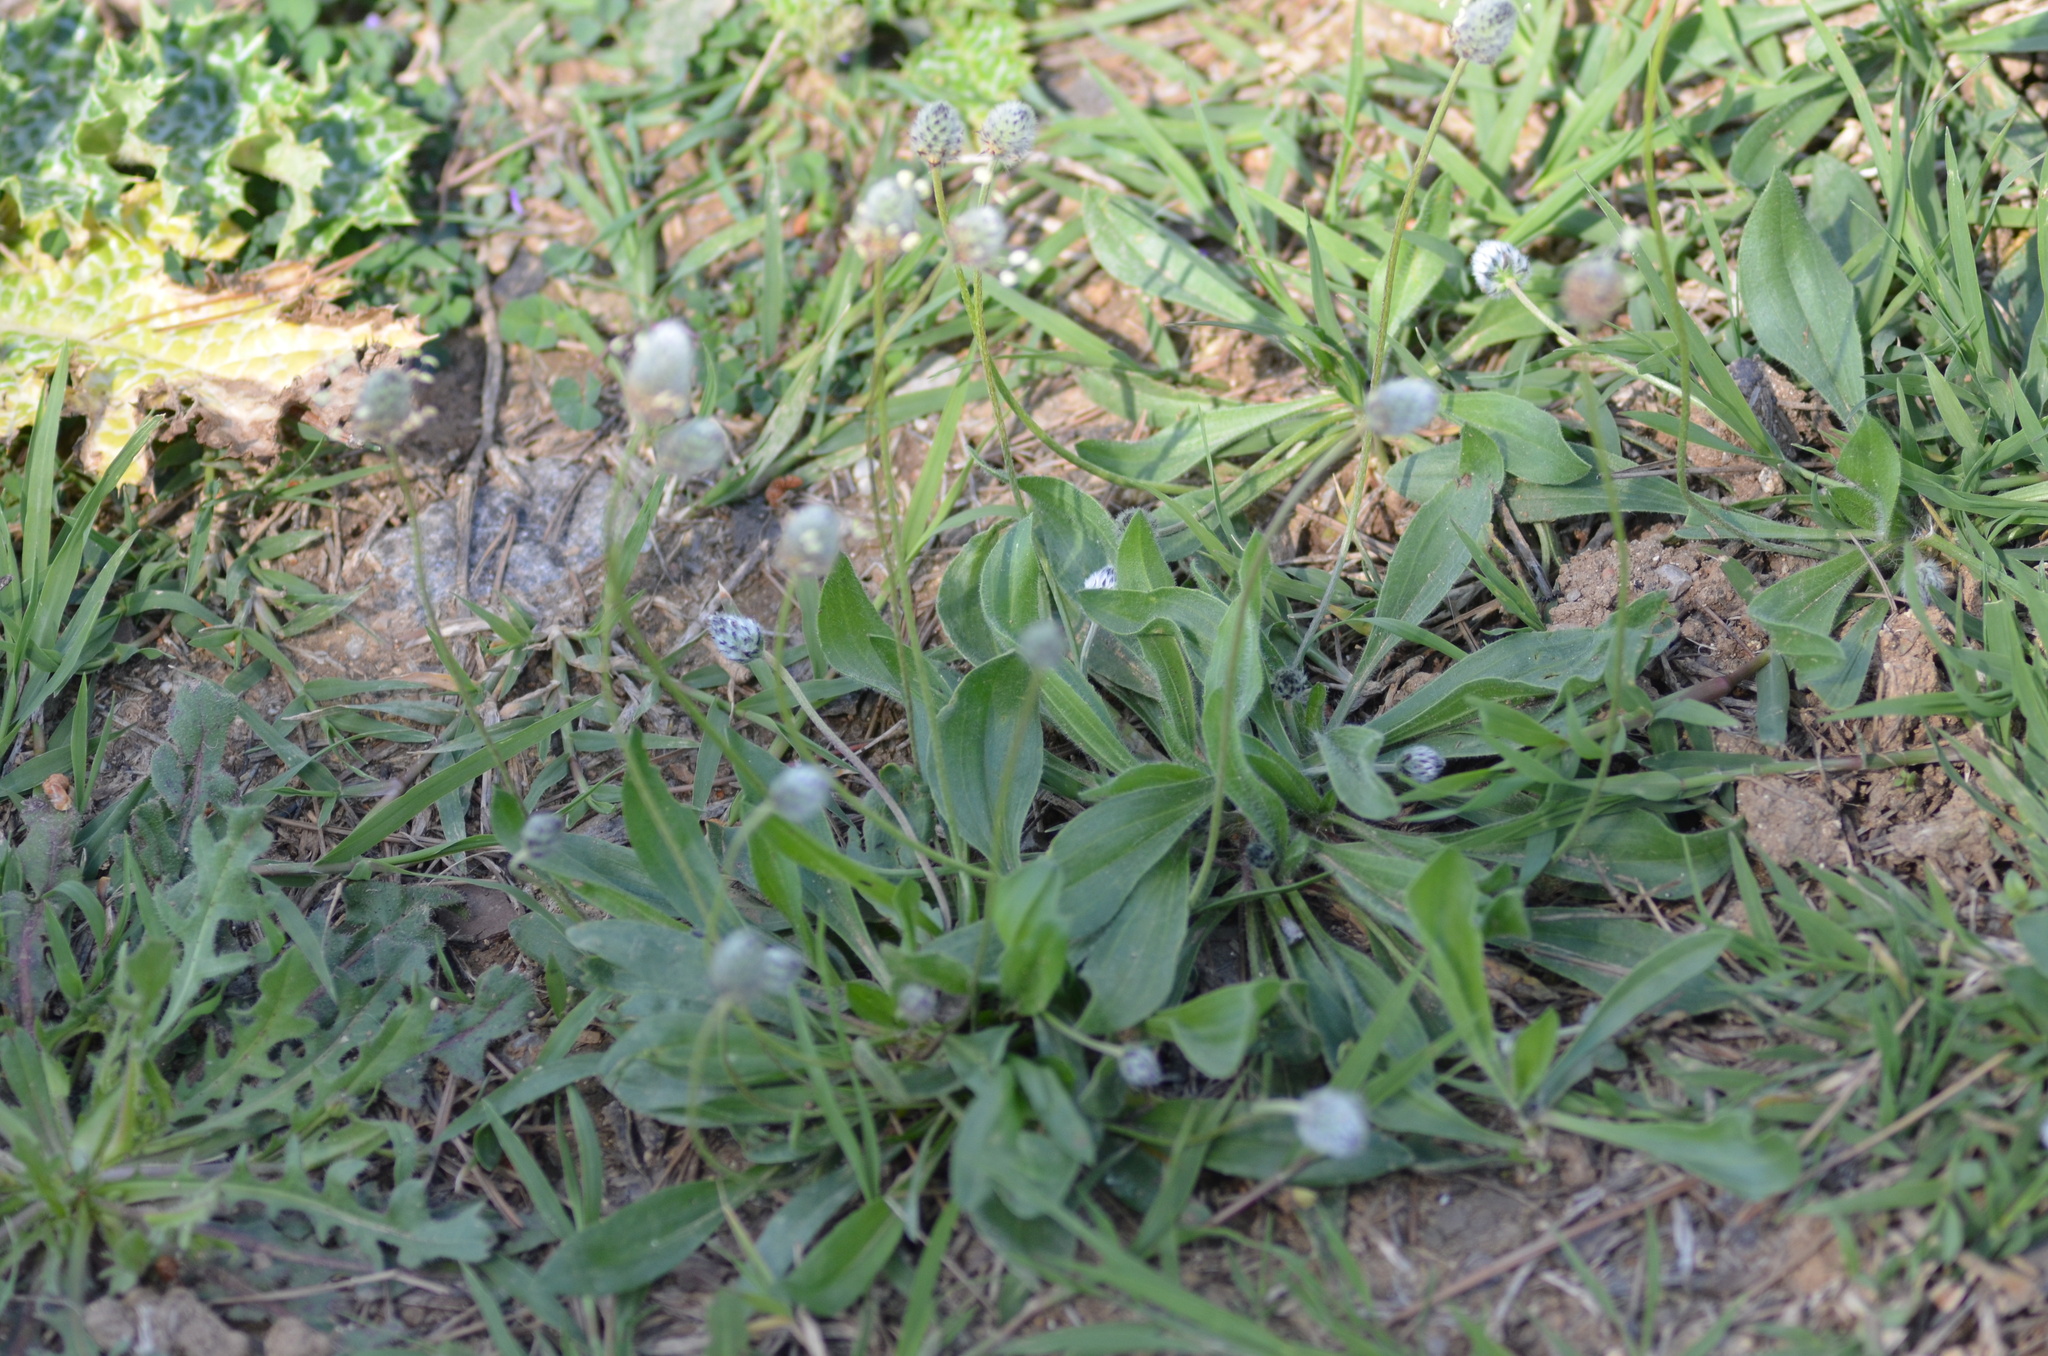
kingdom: Plantae
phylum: Tracheophyta
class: Magnoliopsida
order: Lamiales
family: Plantaginaceae
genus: Plantago
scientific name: Plantago lagopus
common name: Hare-foot plantain
